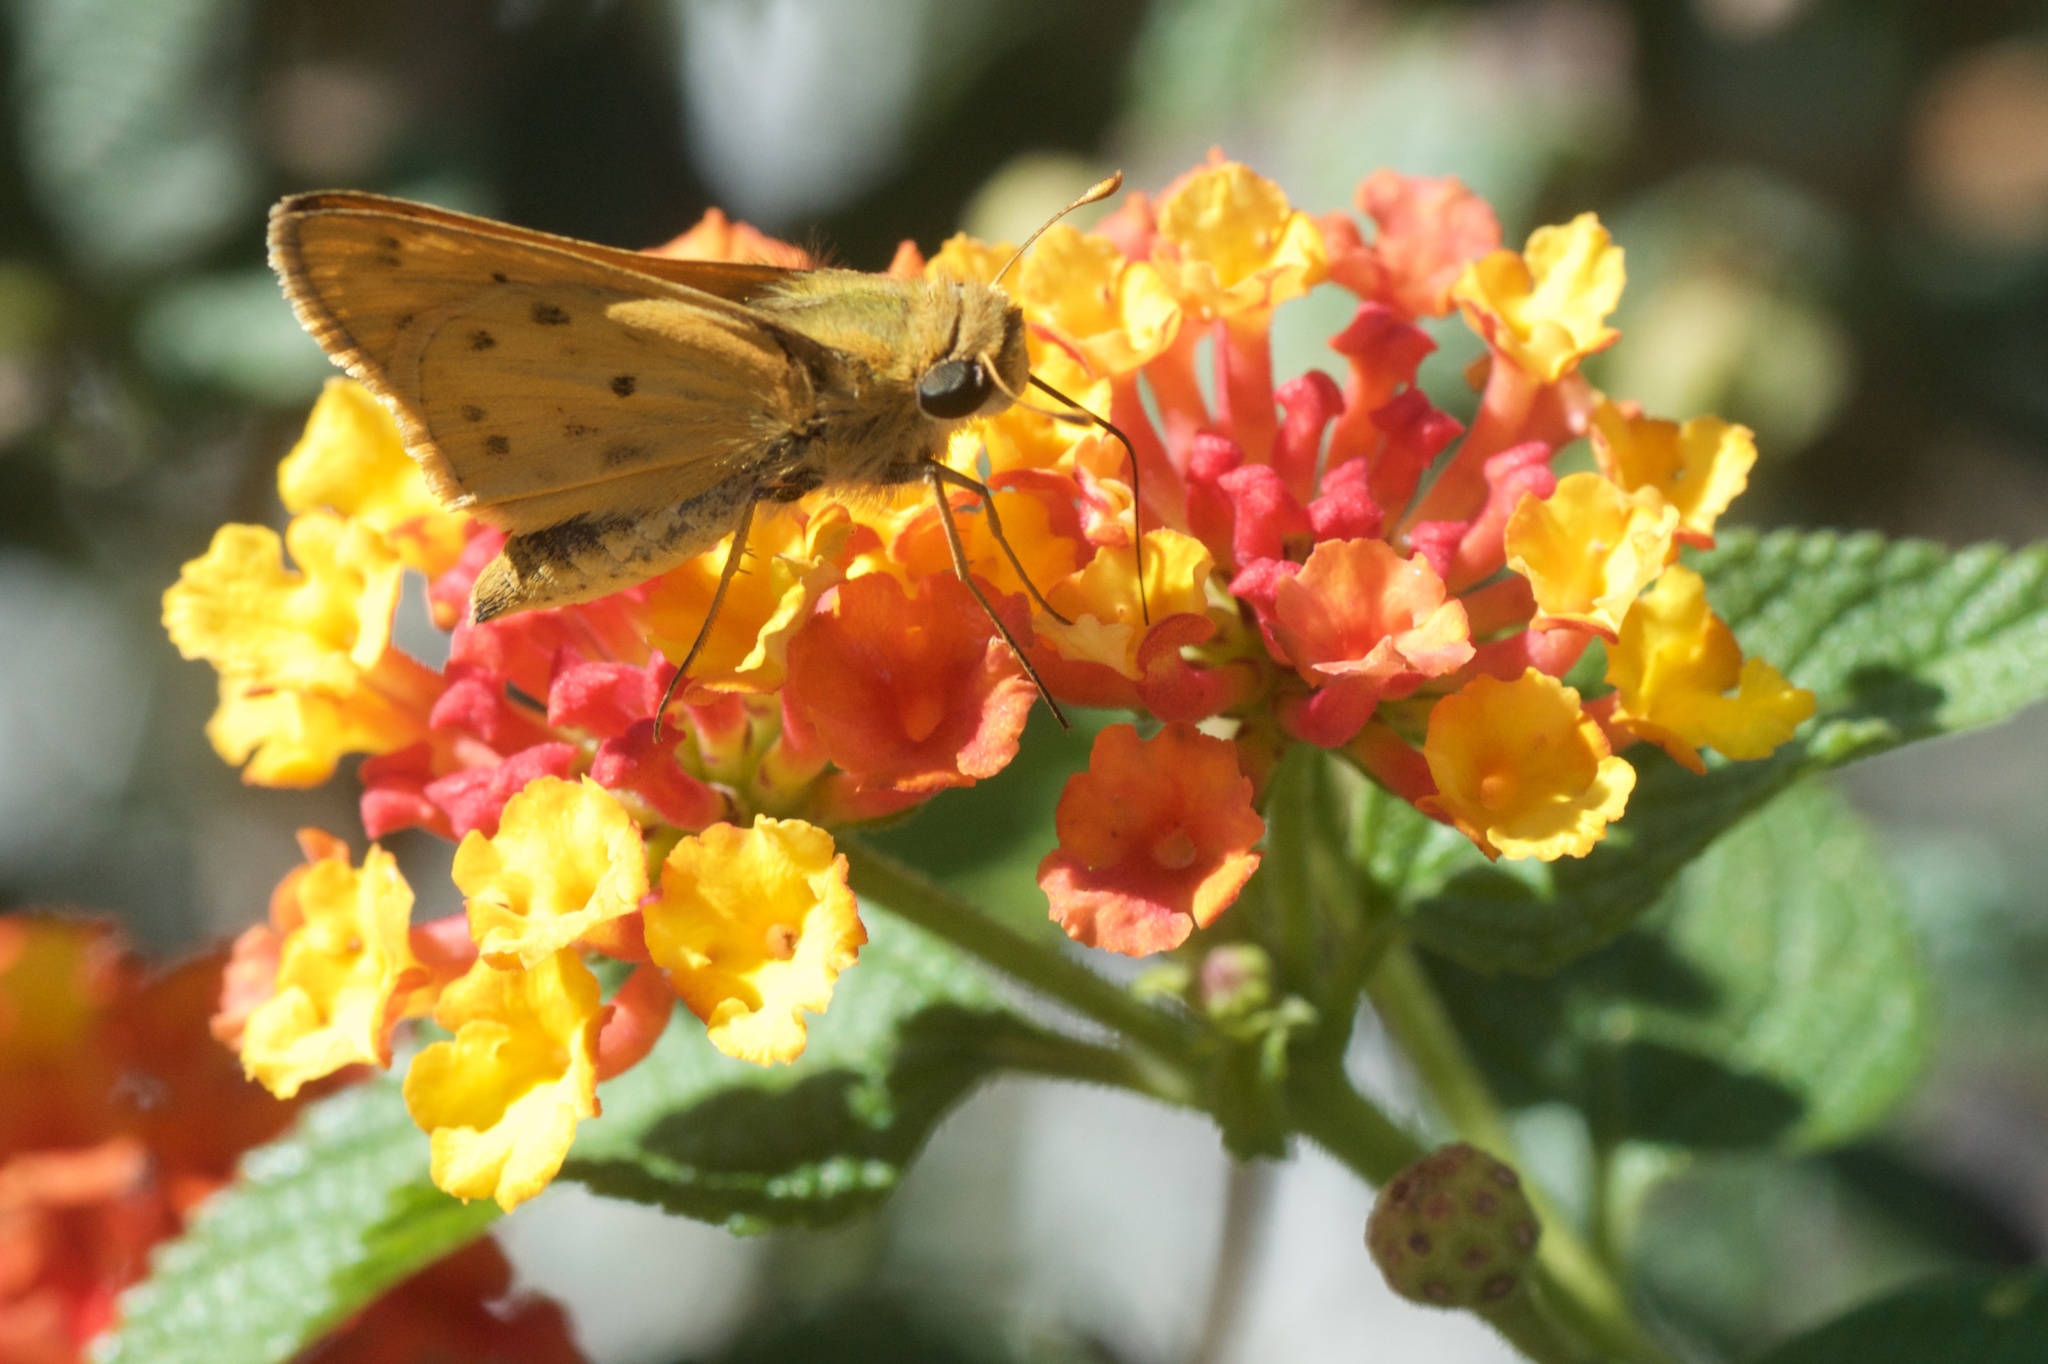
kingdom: Animalia
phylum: Arthropoda
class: Insecta
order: Lepidoptera
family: Hesperiidae
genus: Hylephila
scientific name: Hylephila phyleus
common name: Fiery skipper
